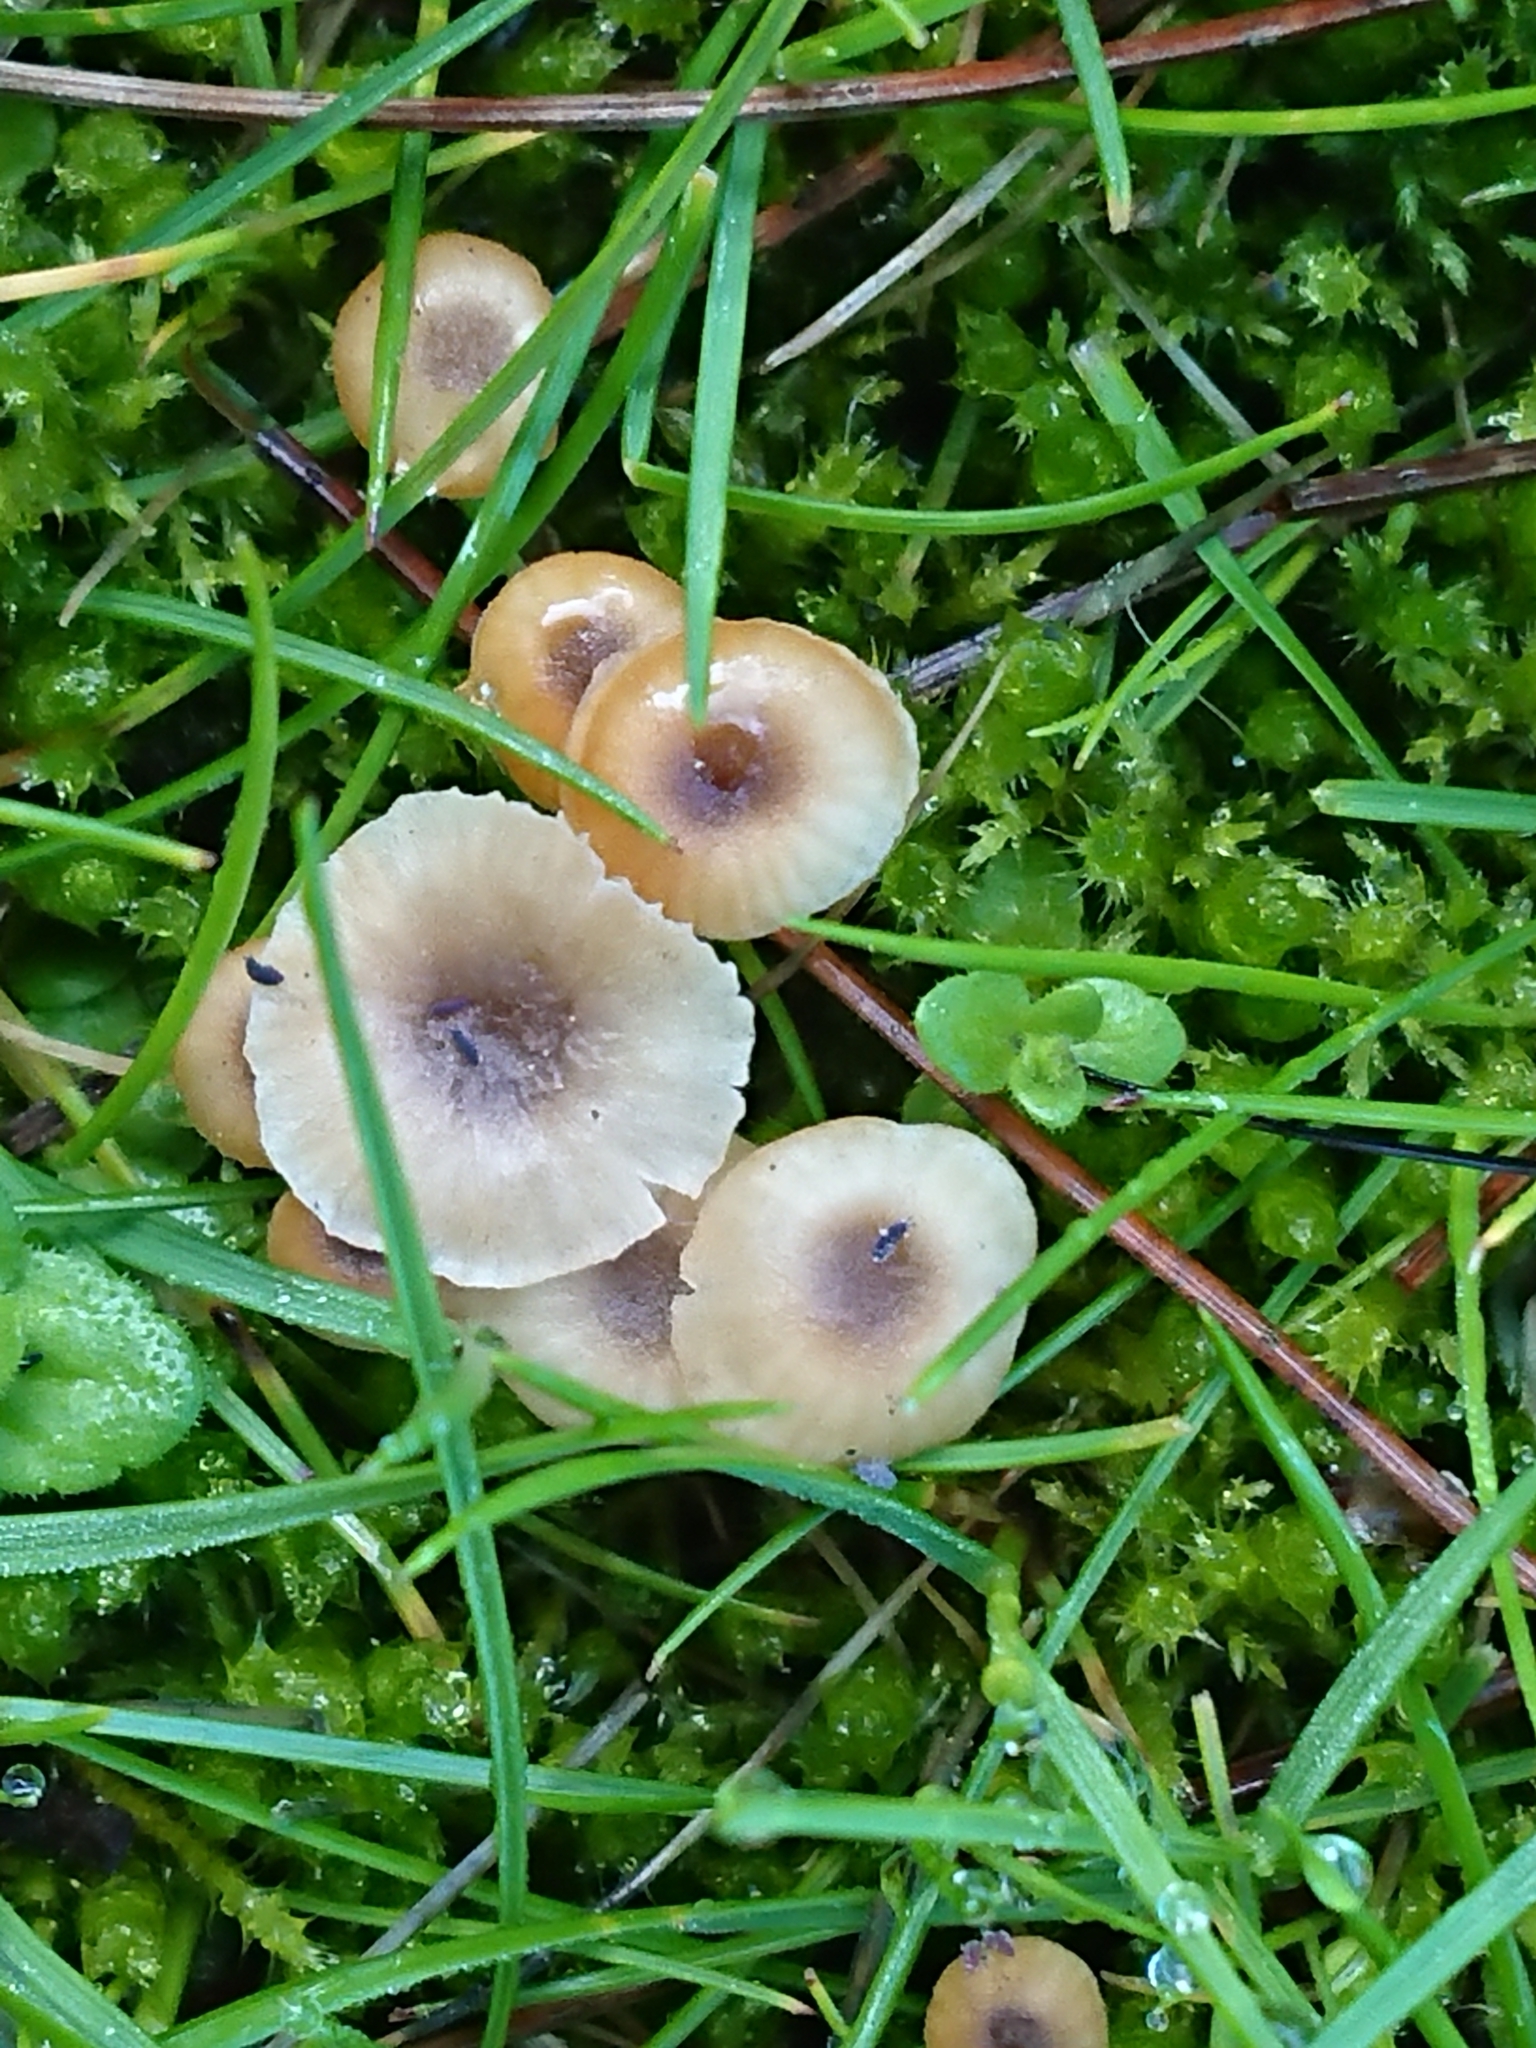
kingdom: Fungi
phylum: Basidiomycota
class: Agaricomycetes
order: Hymenochaetales
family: Rickenellaceae
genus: Rickenella
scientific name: Rickenella swartzii
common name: Collared mosscap
